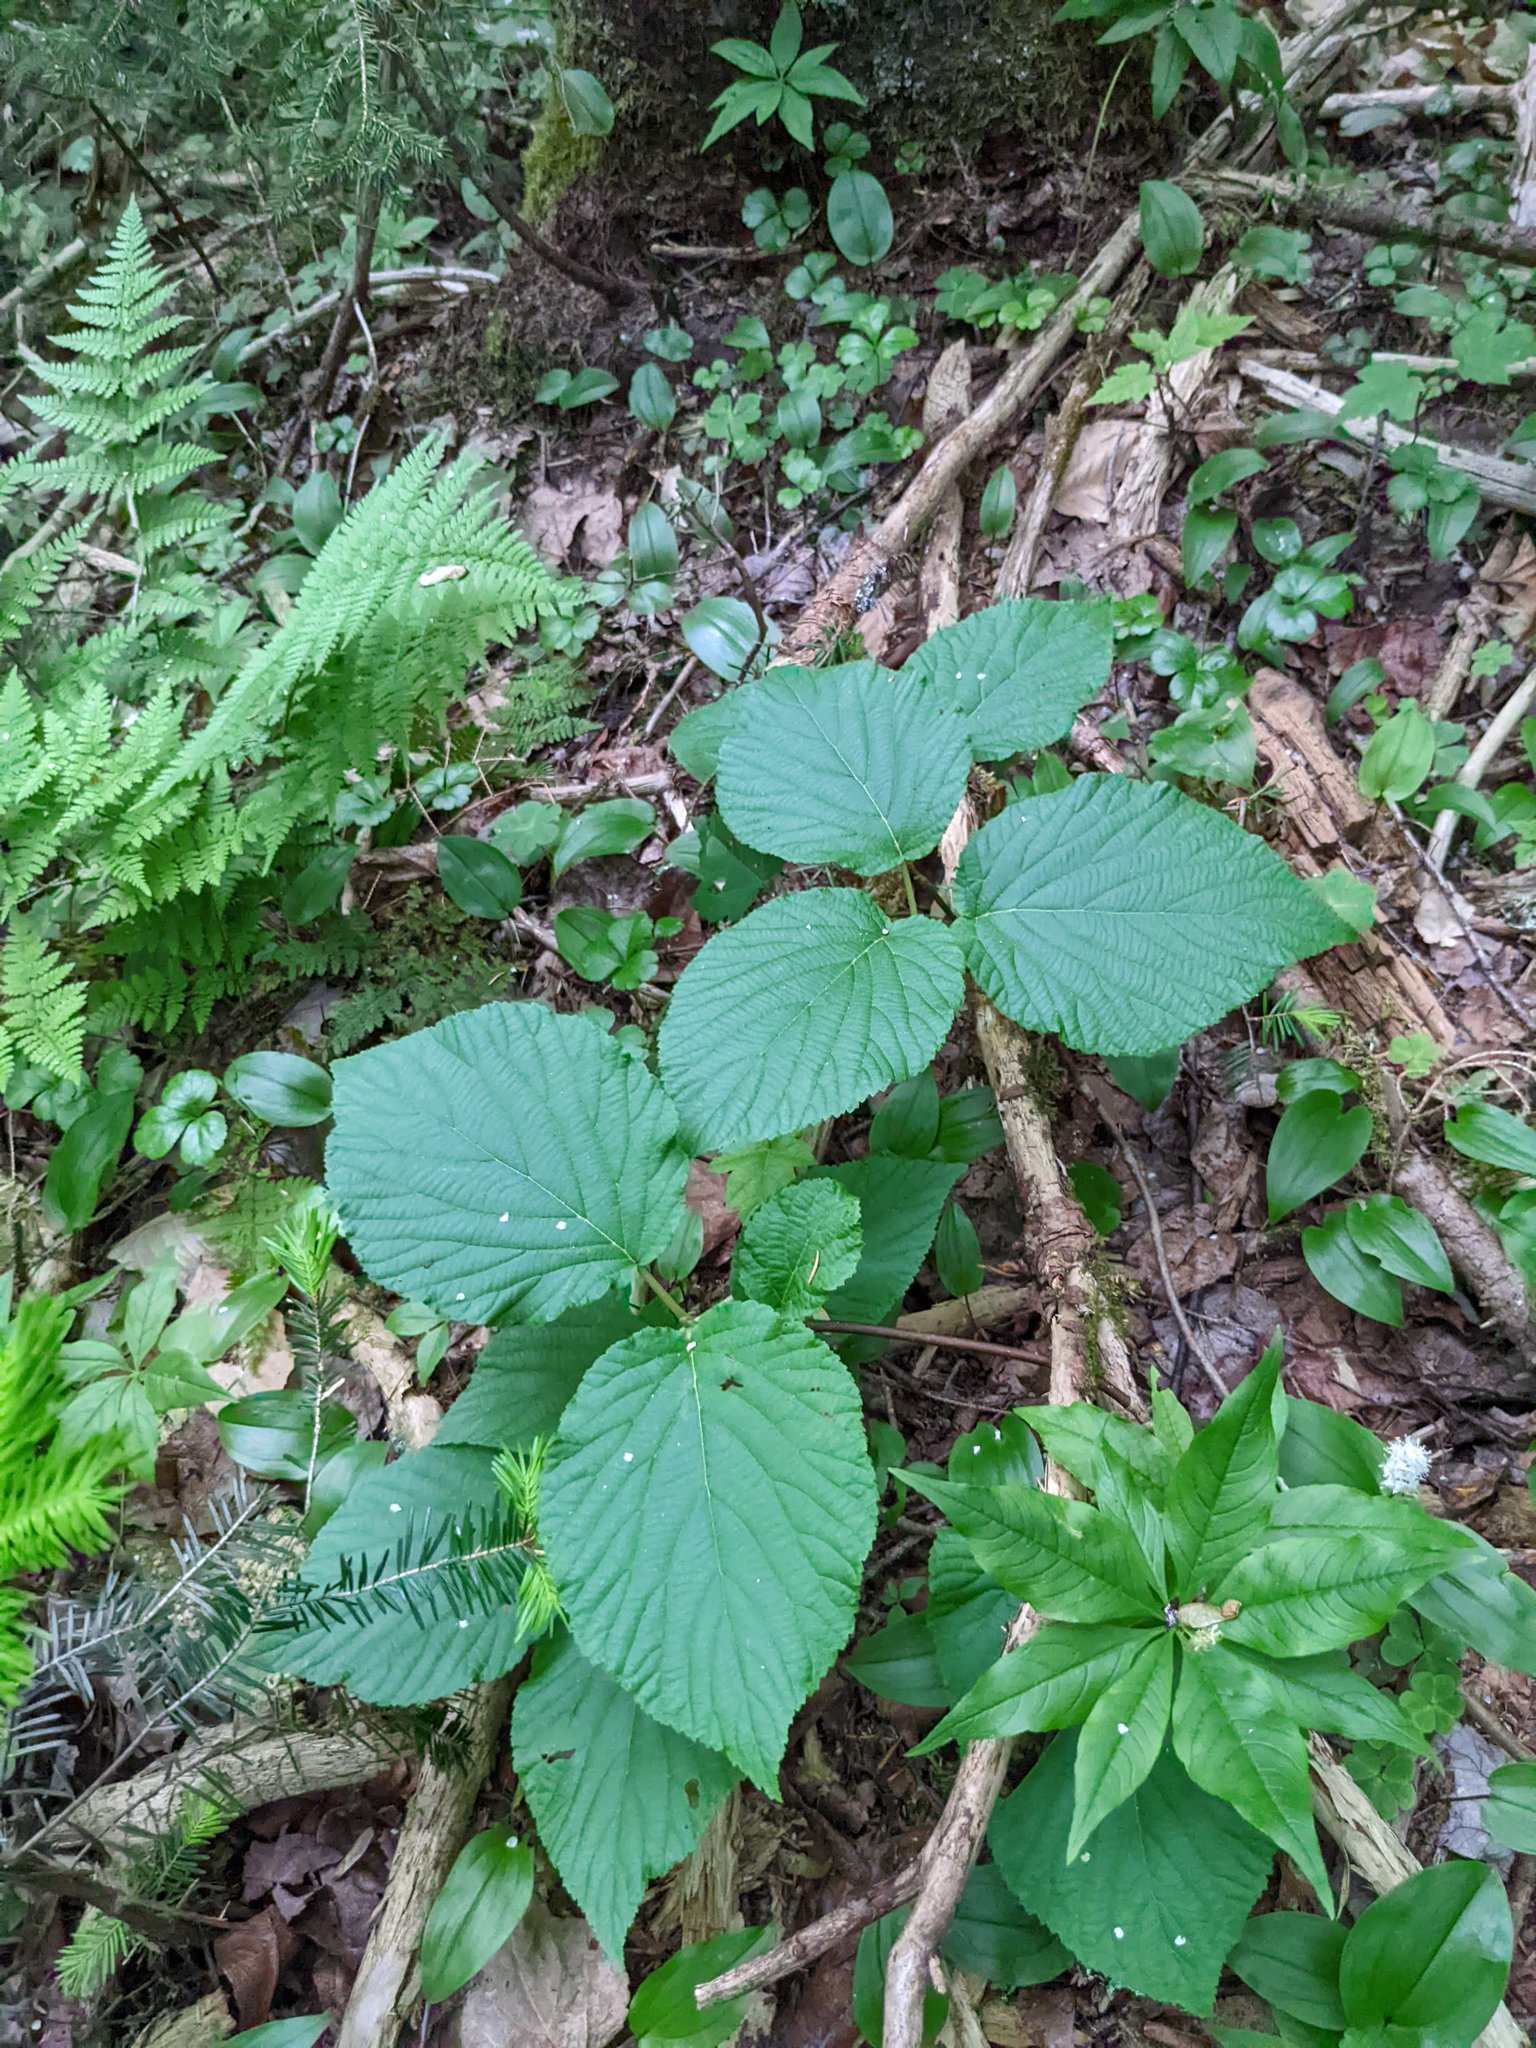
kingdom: Plantae
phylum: Tracheophyta
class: Magnoliopsida
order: Dipsacales
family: Viburnaceae
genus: Viburnum
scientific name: Viburnum lantanoides
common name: Hobblebush
